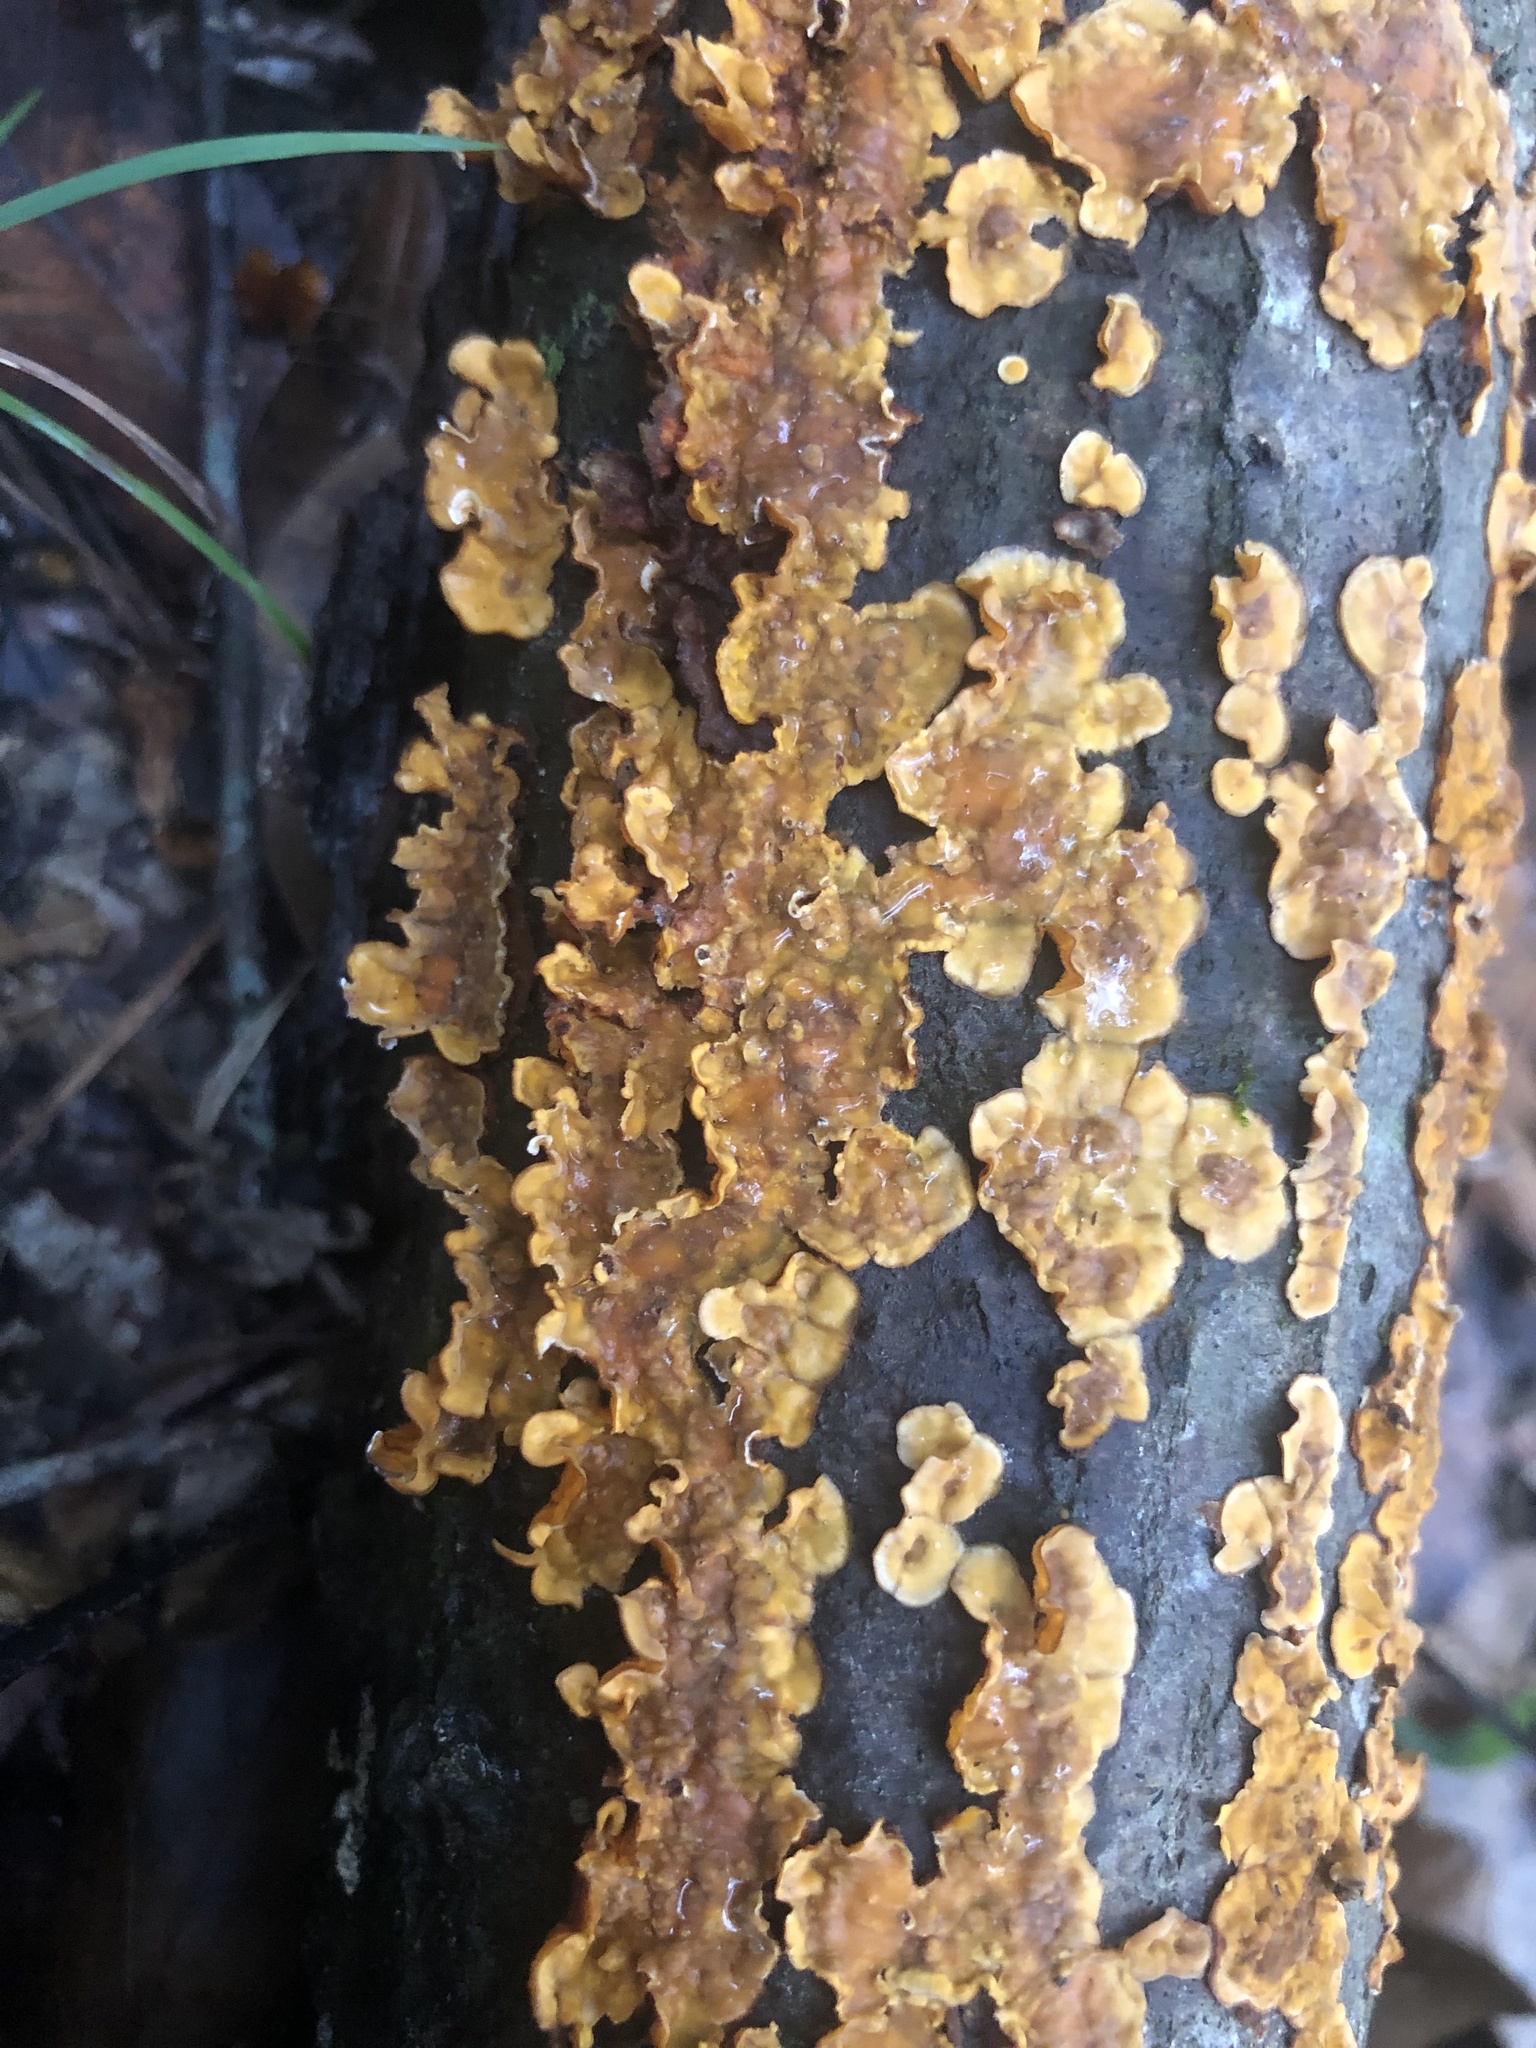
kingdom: Fungi
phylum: Basidiomycota
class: Agaricomycetes
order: Russulales
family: Stereaceae
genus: Stereum
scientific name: Stereum complicatum
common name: Crowded parchment
